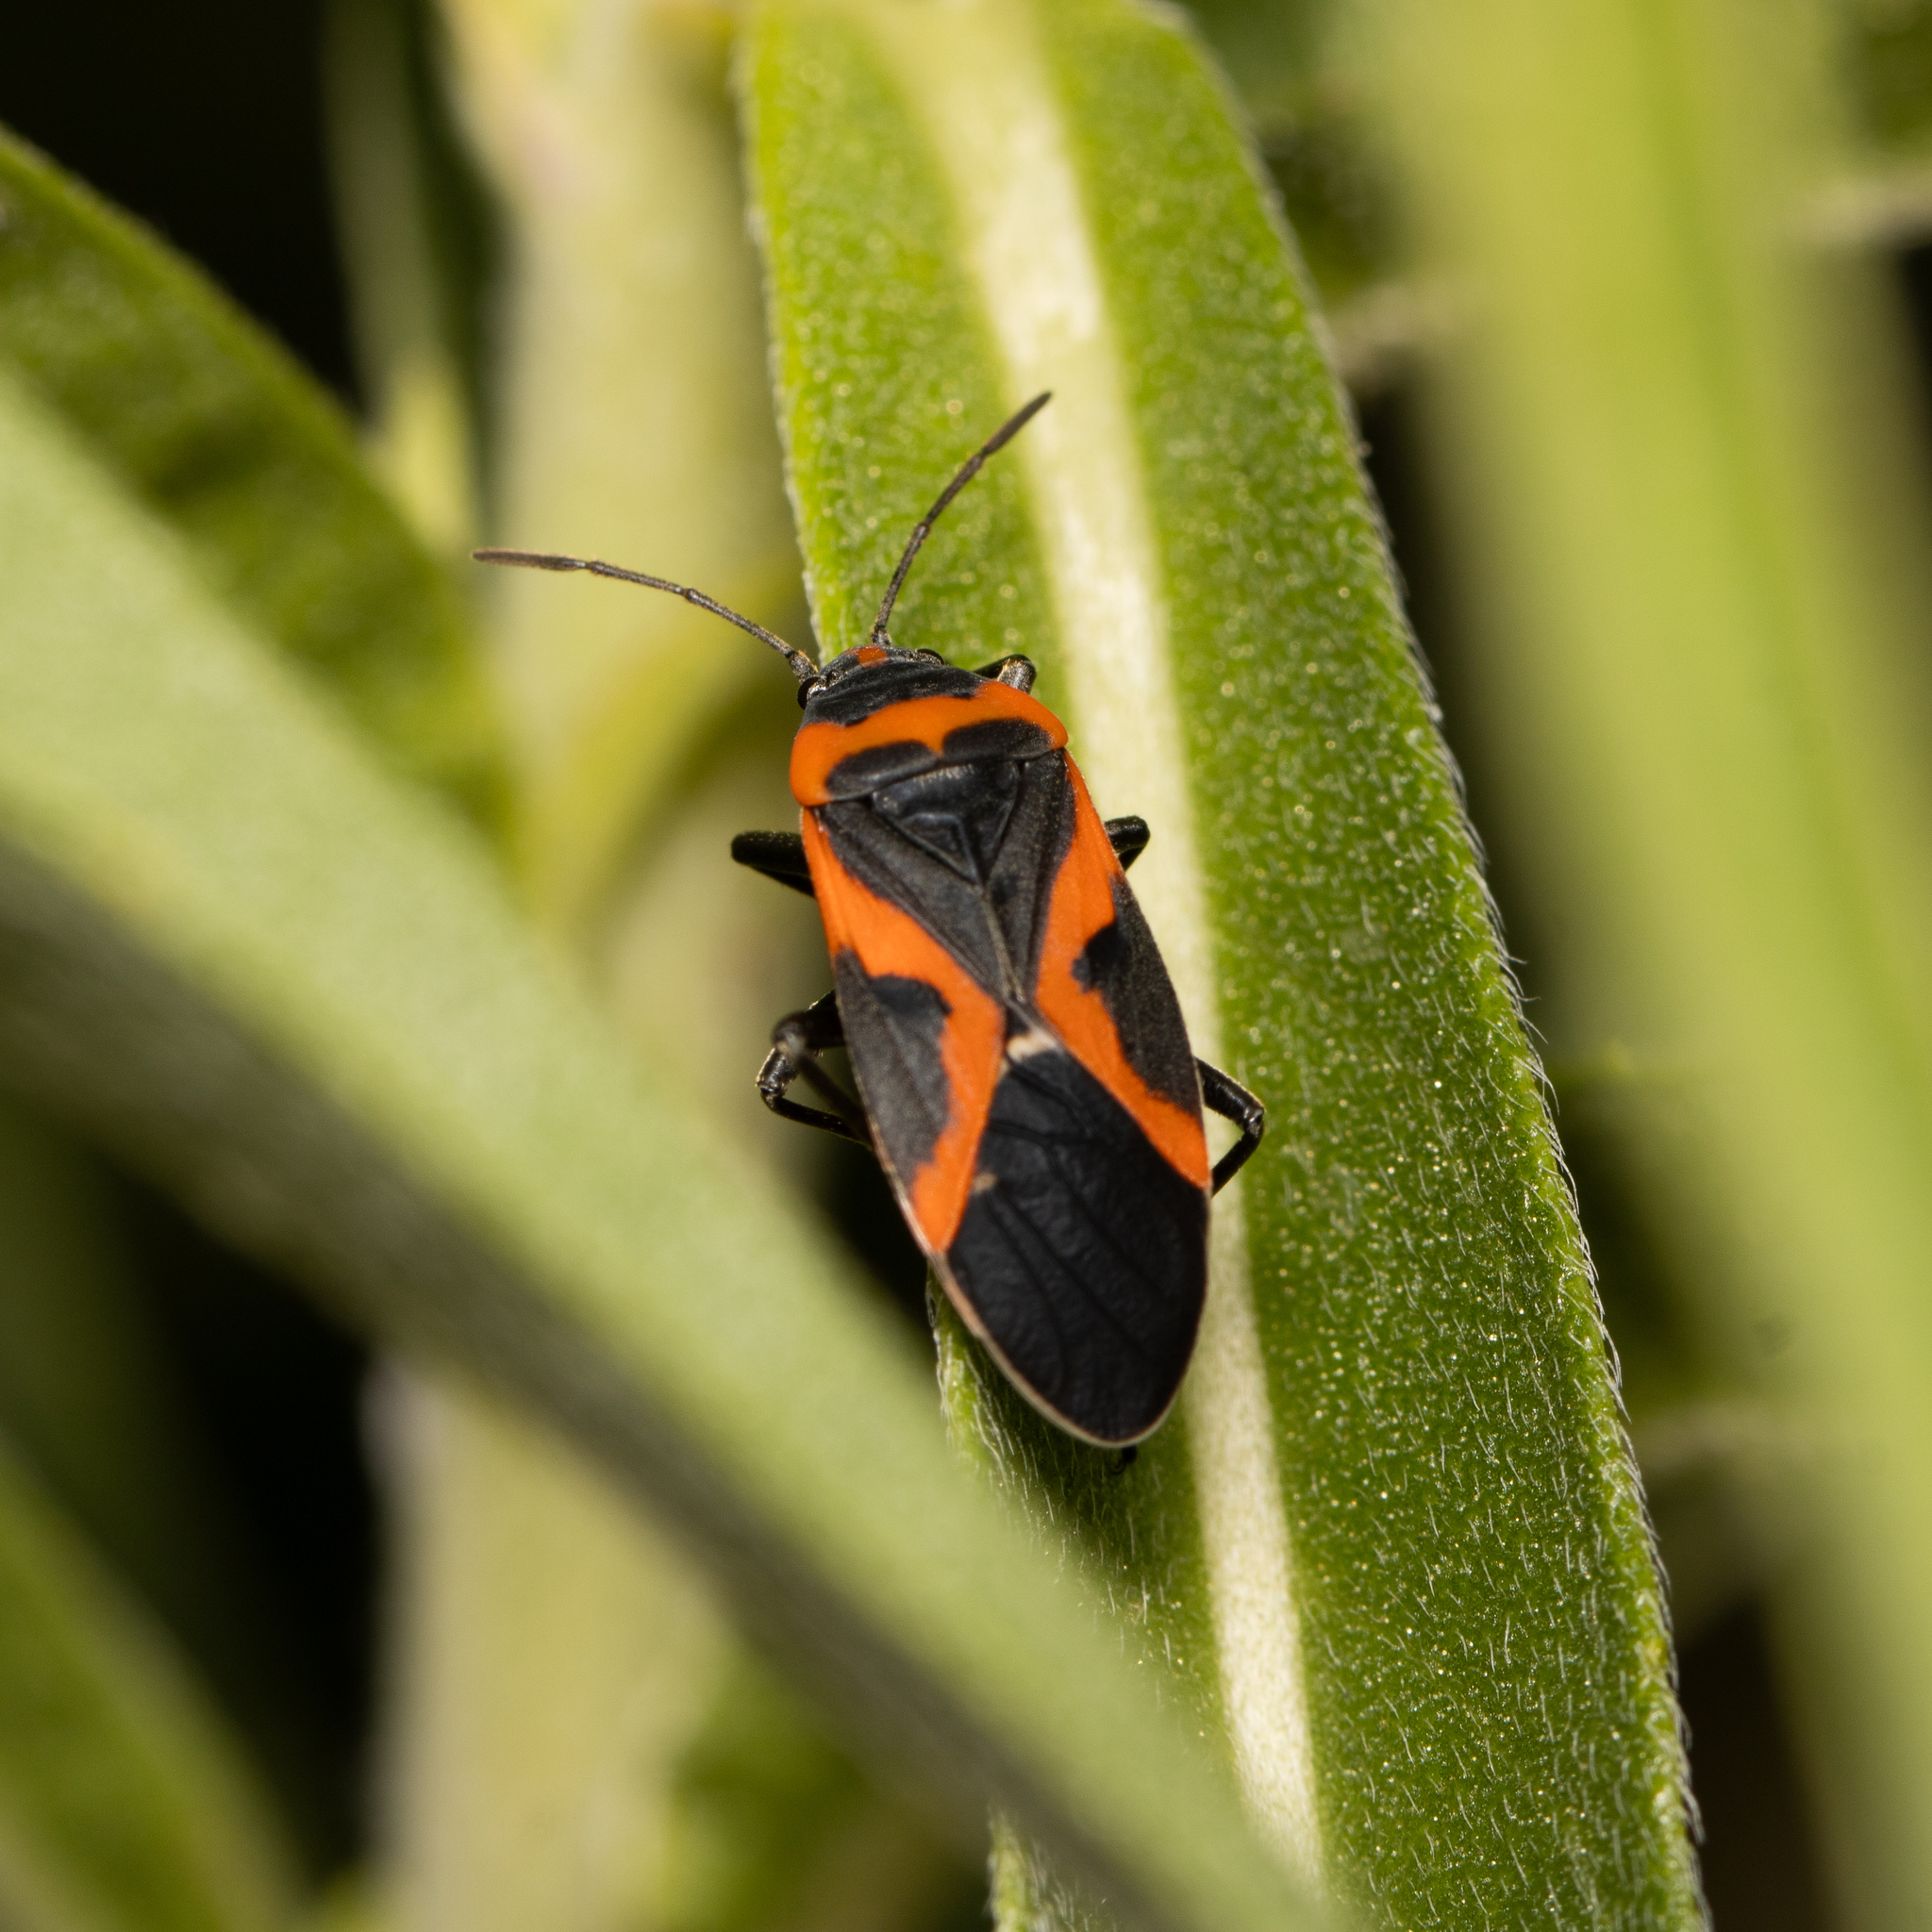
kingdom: Animalia
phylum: Arthropoda
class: Insecta
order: Hemiptera
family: Lygaeidae
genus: Lygaeus
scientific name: Lygaeus kalmii
